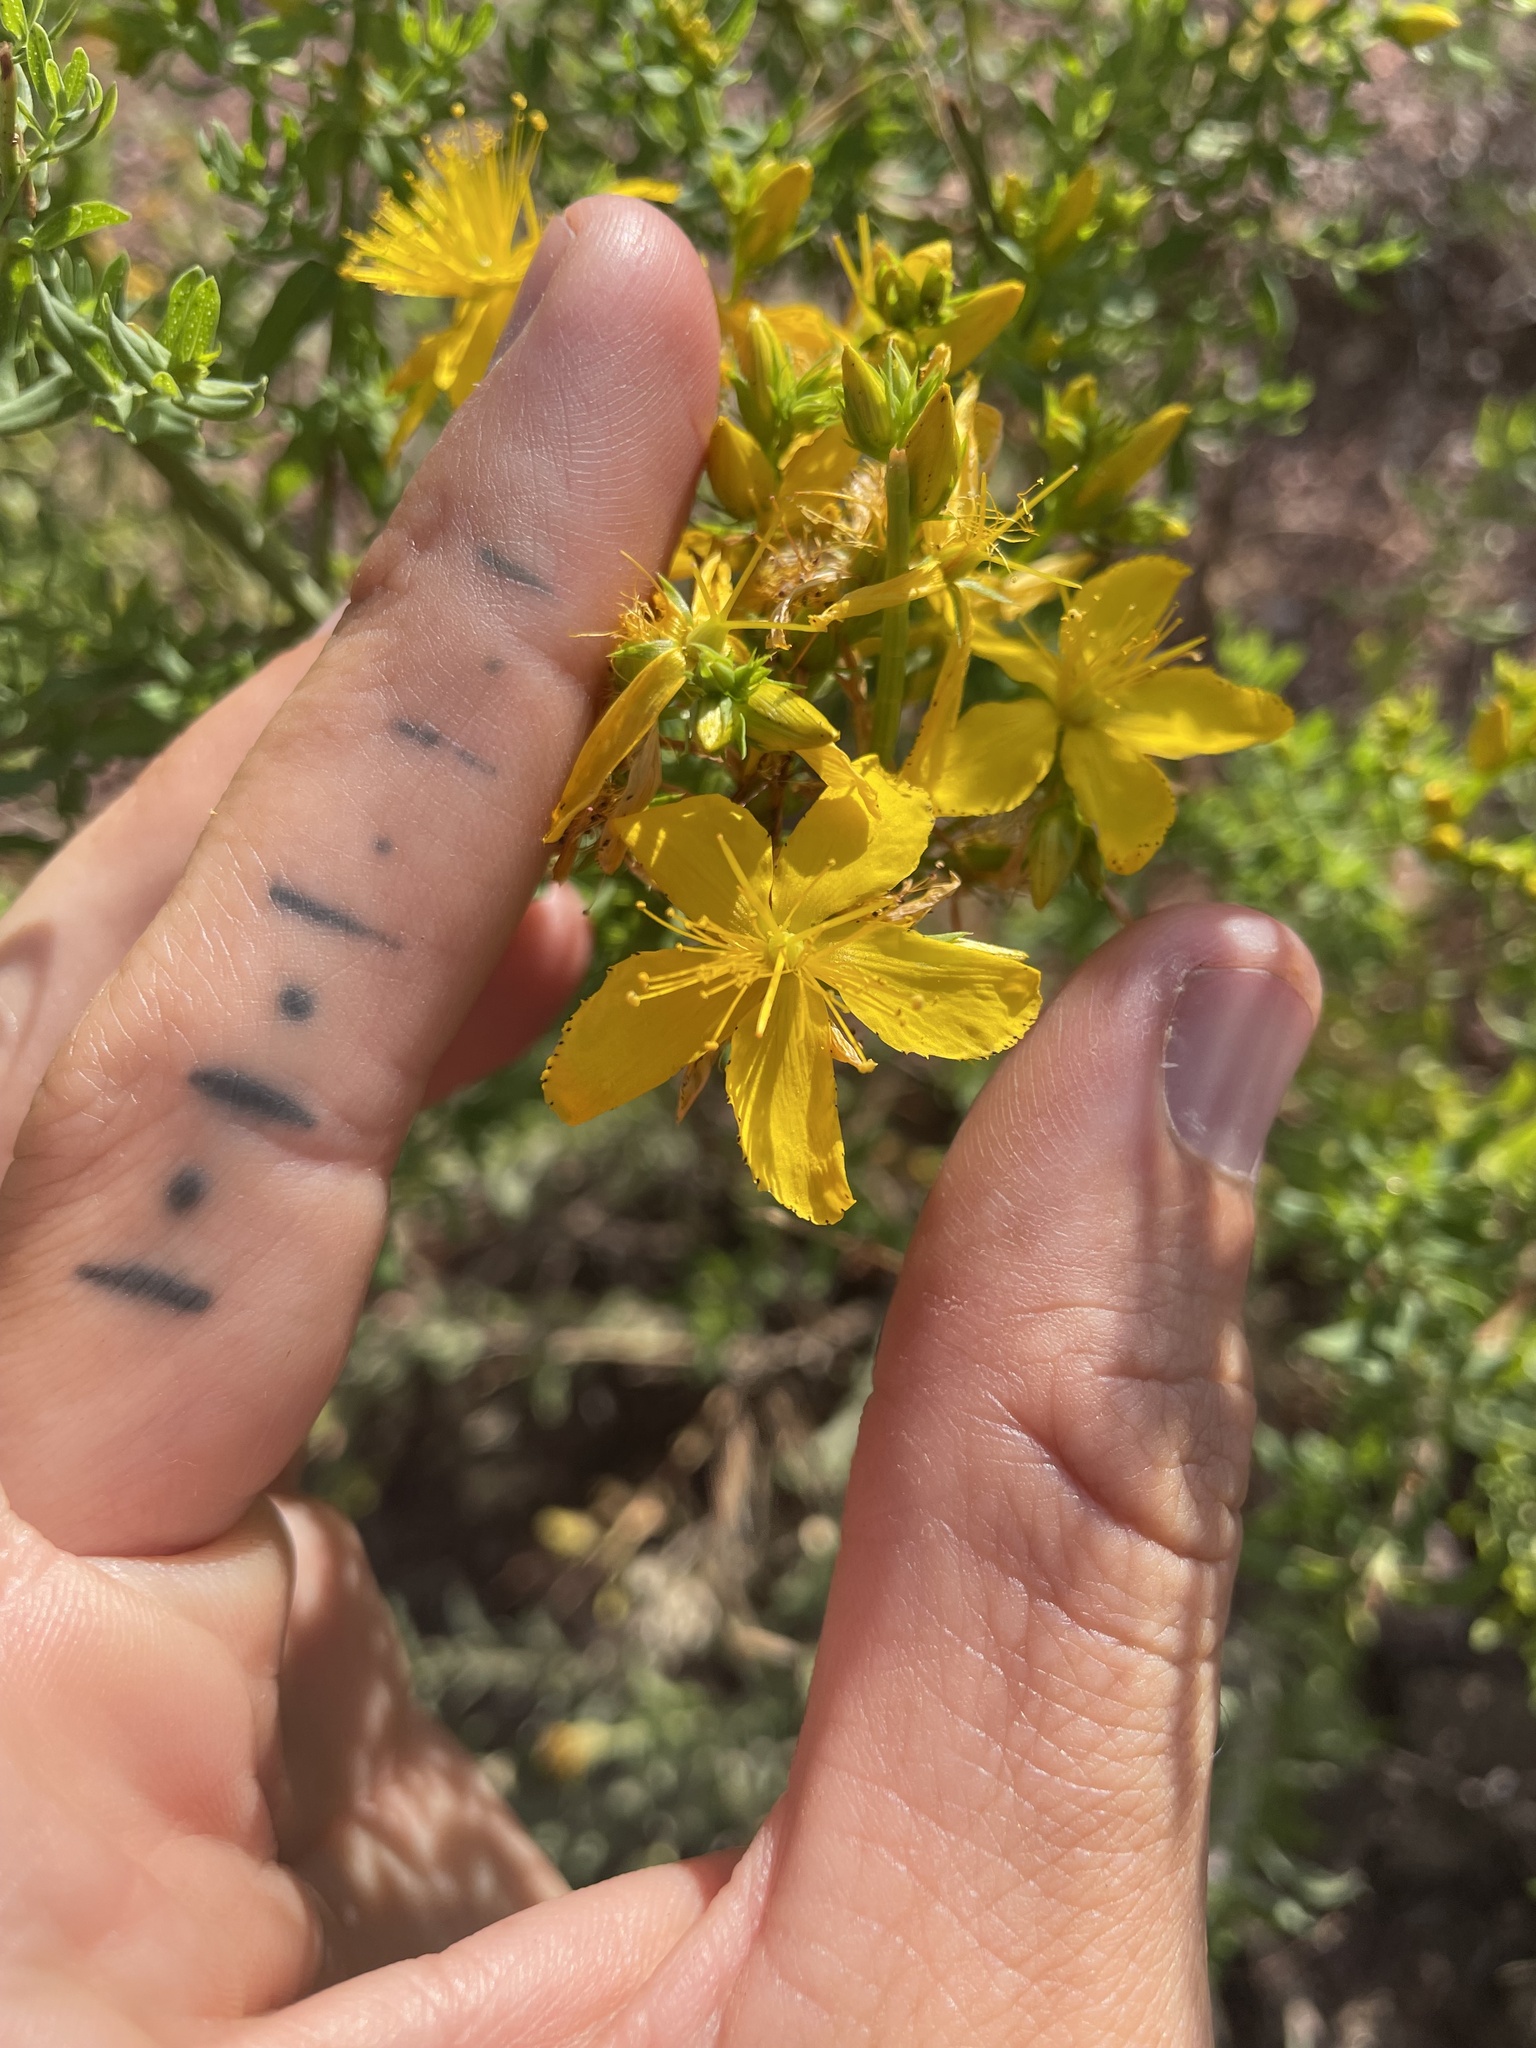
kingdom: Plantae
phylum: Tracheophyta
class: Magnoliopsida
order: Malpighiales
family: Hypericaceae
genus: Hypericum
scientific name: Hypericum perforatum
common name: Common st. johnswort
